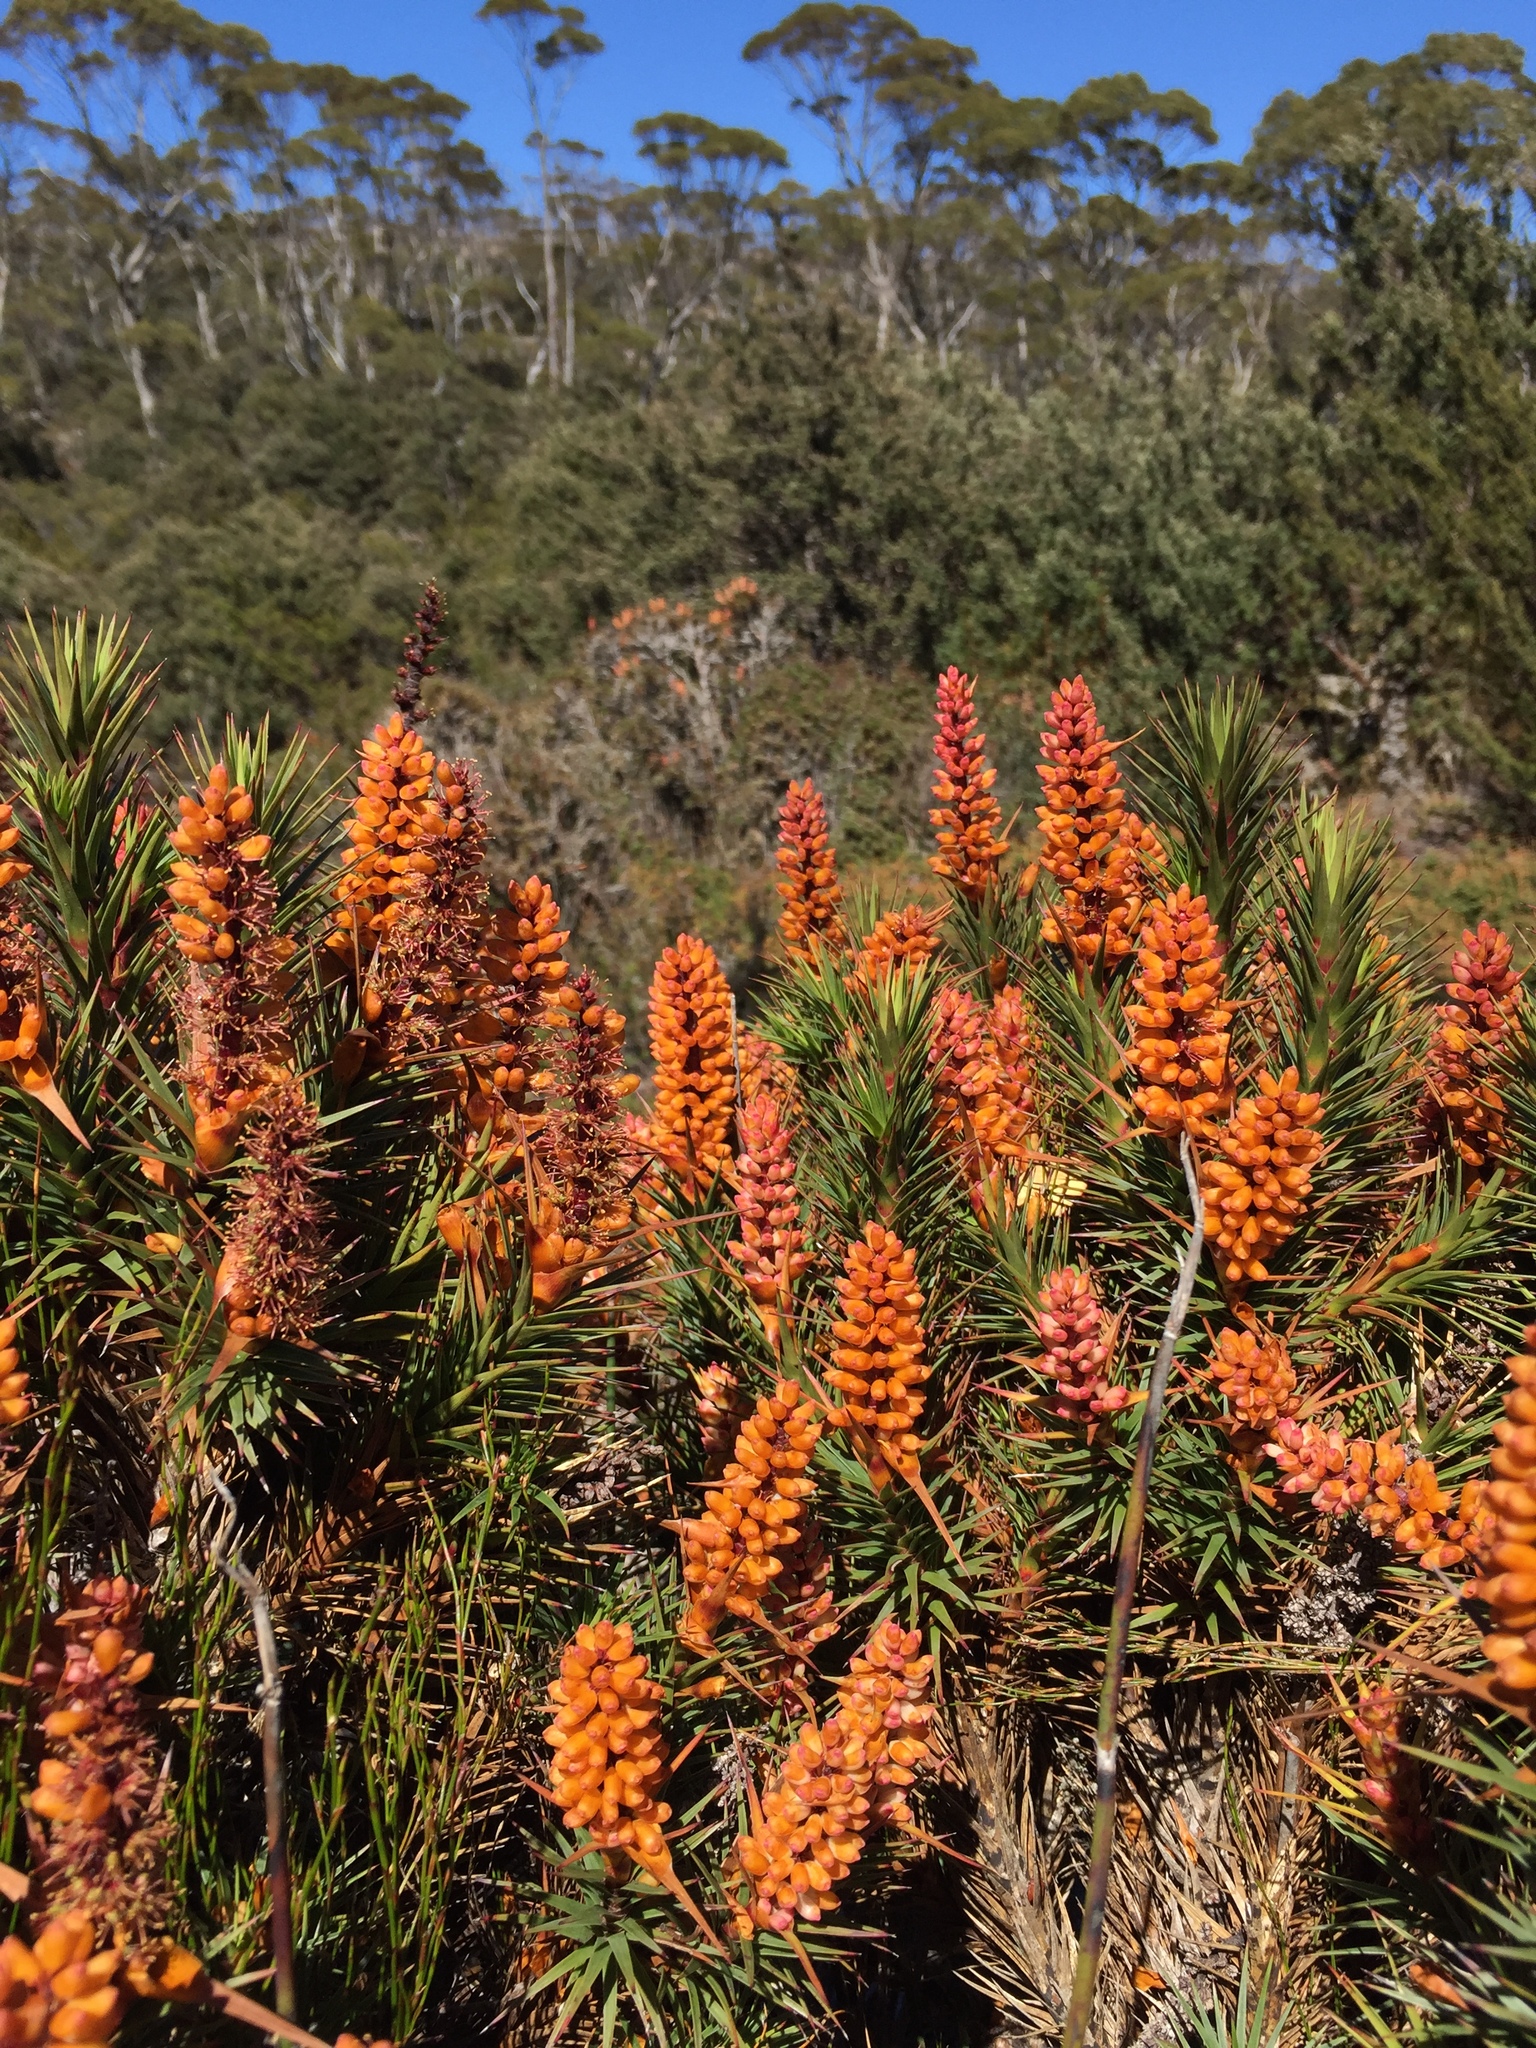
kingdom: Plantae
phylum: Tracheophyta
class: Magnoliopsida
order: Ericales
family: Ericaceae
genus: Dracophyllum
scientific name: Dracophyllum persistentifolium
